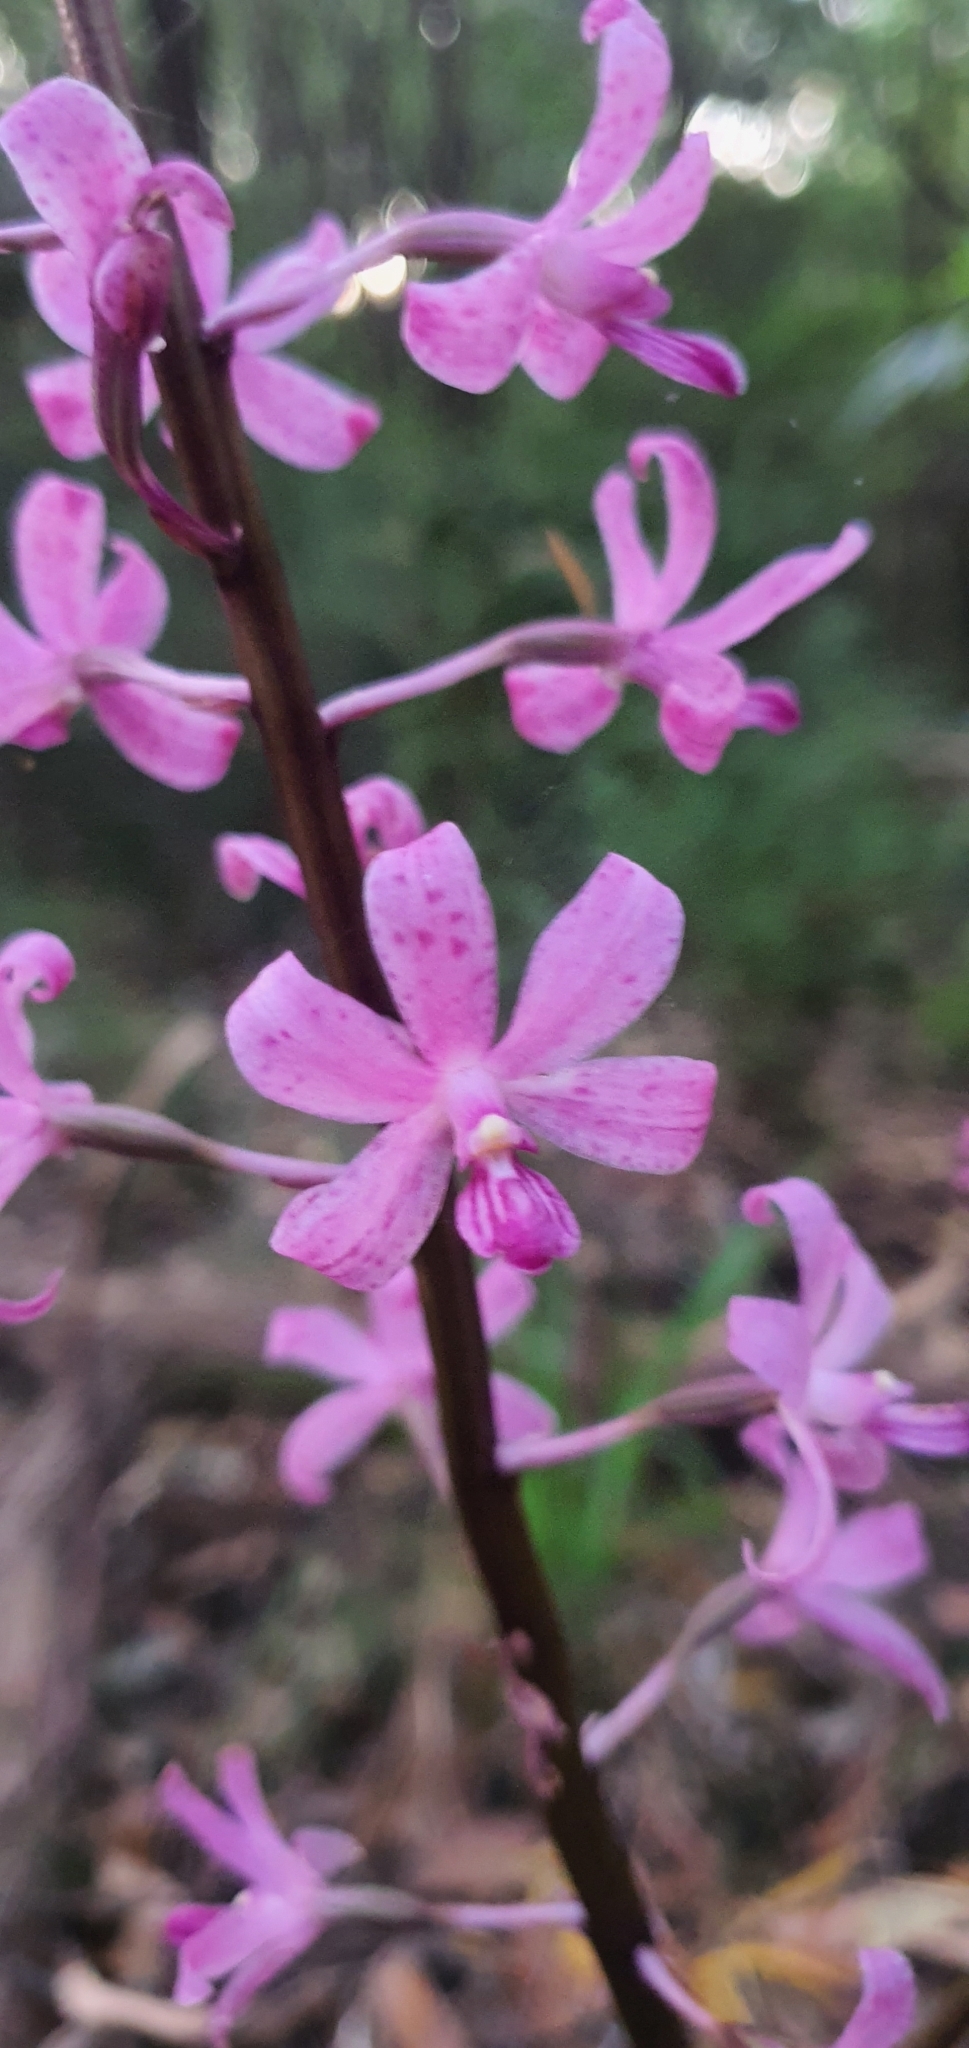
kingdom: Plantae
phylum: Tracheophyta
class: Liliopsida
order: Asparagales
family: Orchidaceae
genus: Dipodium
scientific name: Dipodium roseum
